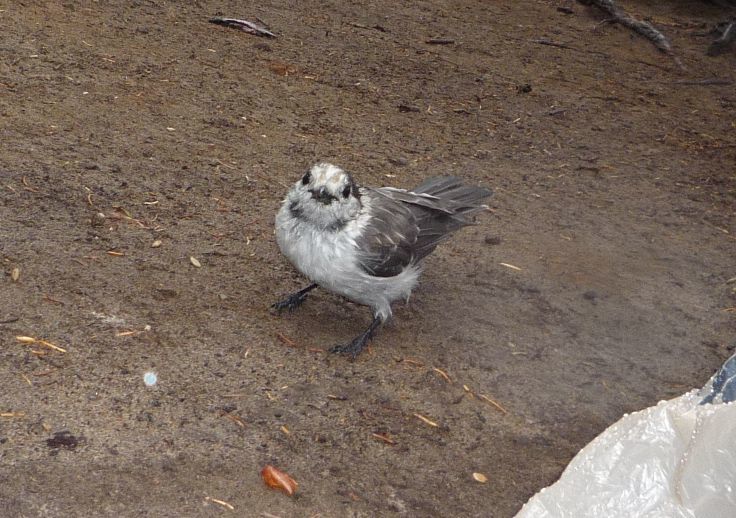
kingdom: Animalia
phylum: Chordata
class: Aves
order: Passeriformes
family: Corvidae
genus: Perisoreus
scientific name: Perisoreus canadensis
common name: Gray jay
